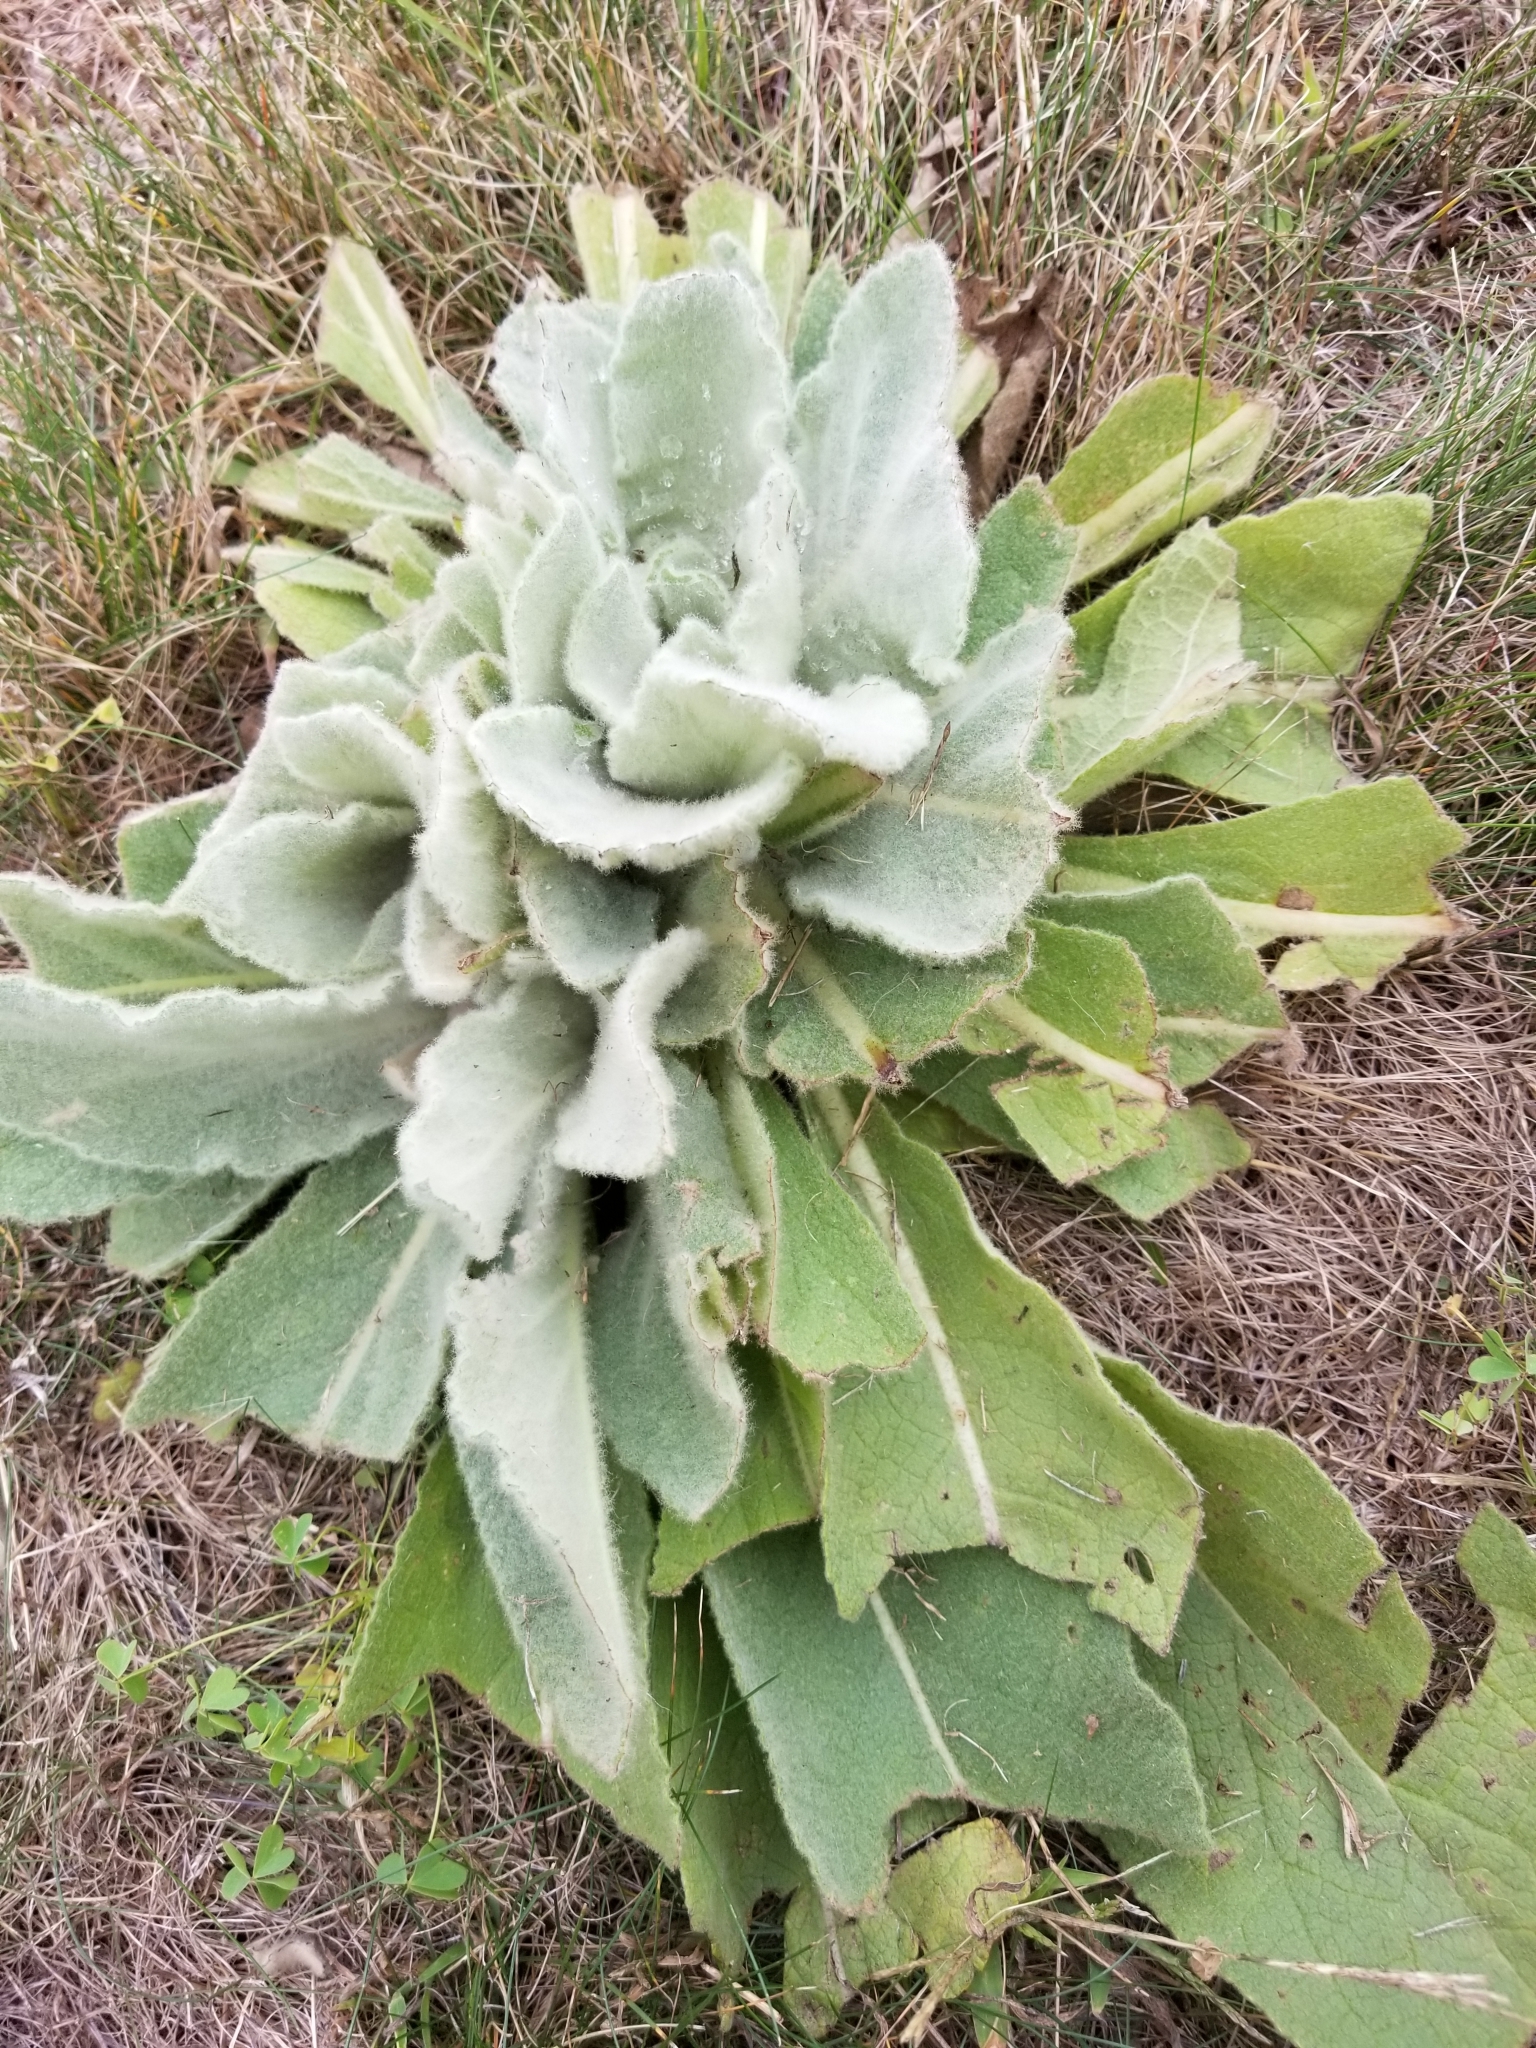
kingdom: Plantae
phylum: Tracheophyta
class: Magnoliopsida
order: Lamiales
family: Scrophulariaceae
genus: Verbascum
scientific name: Verbascum thapsus
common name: Common mullein
